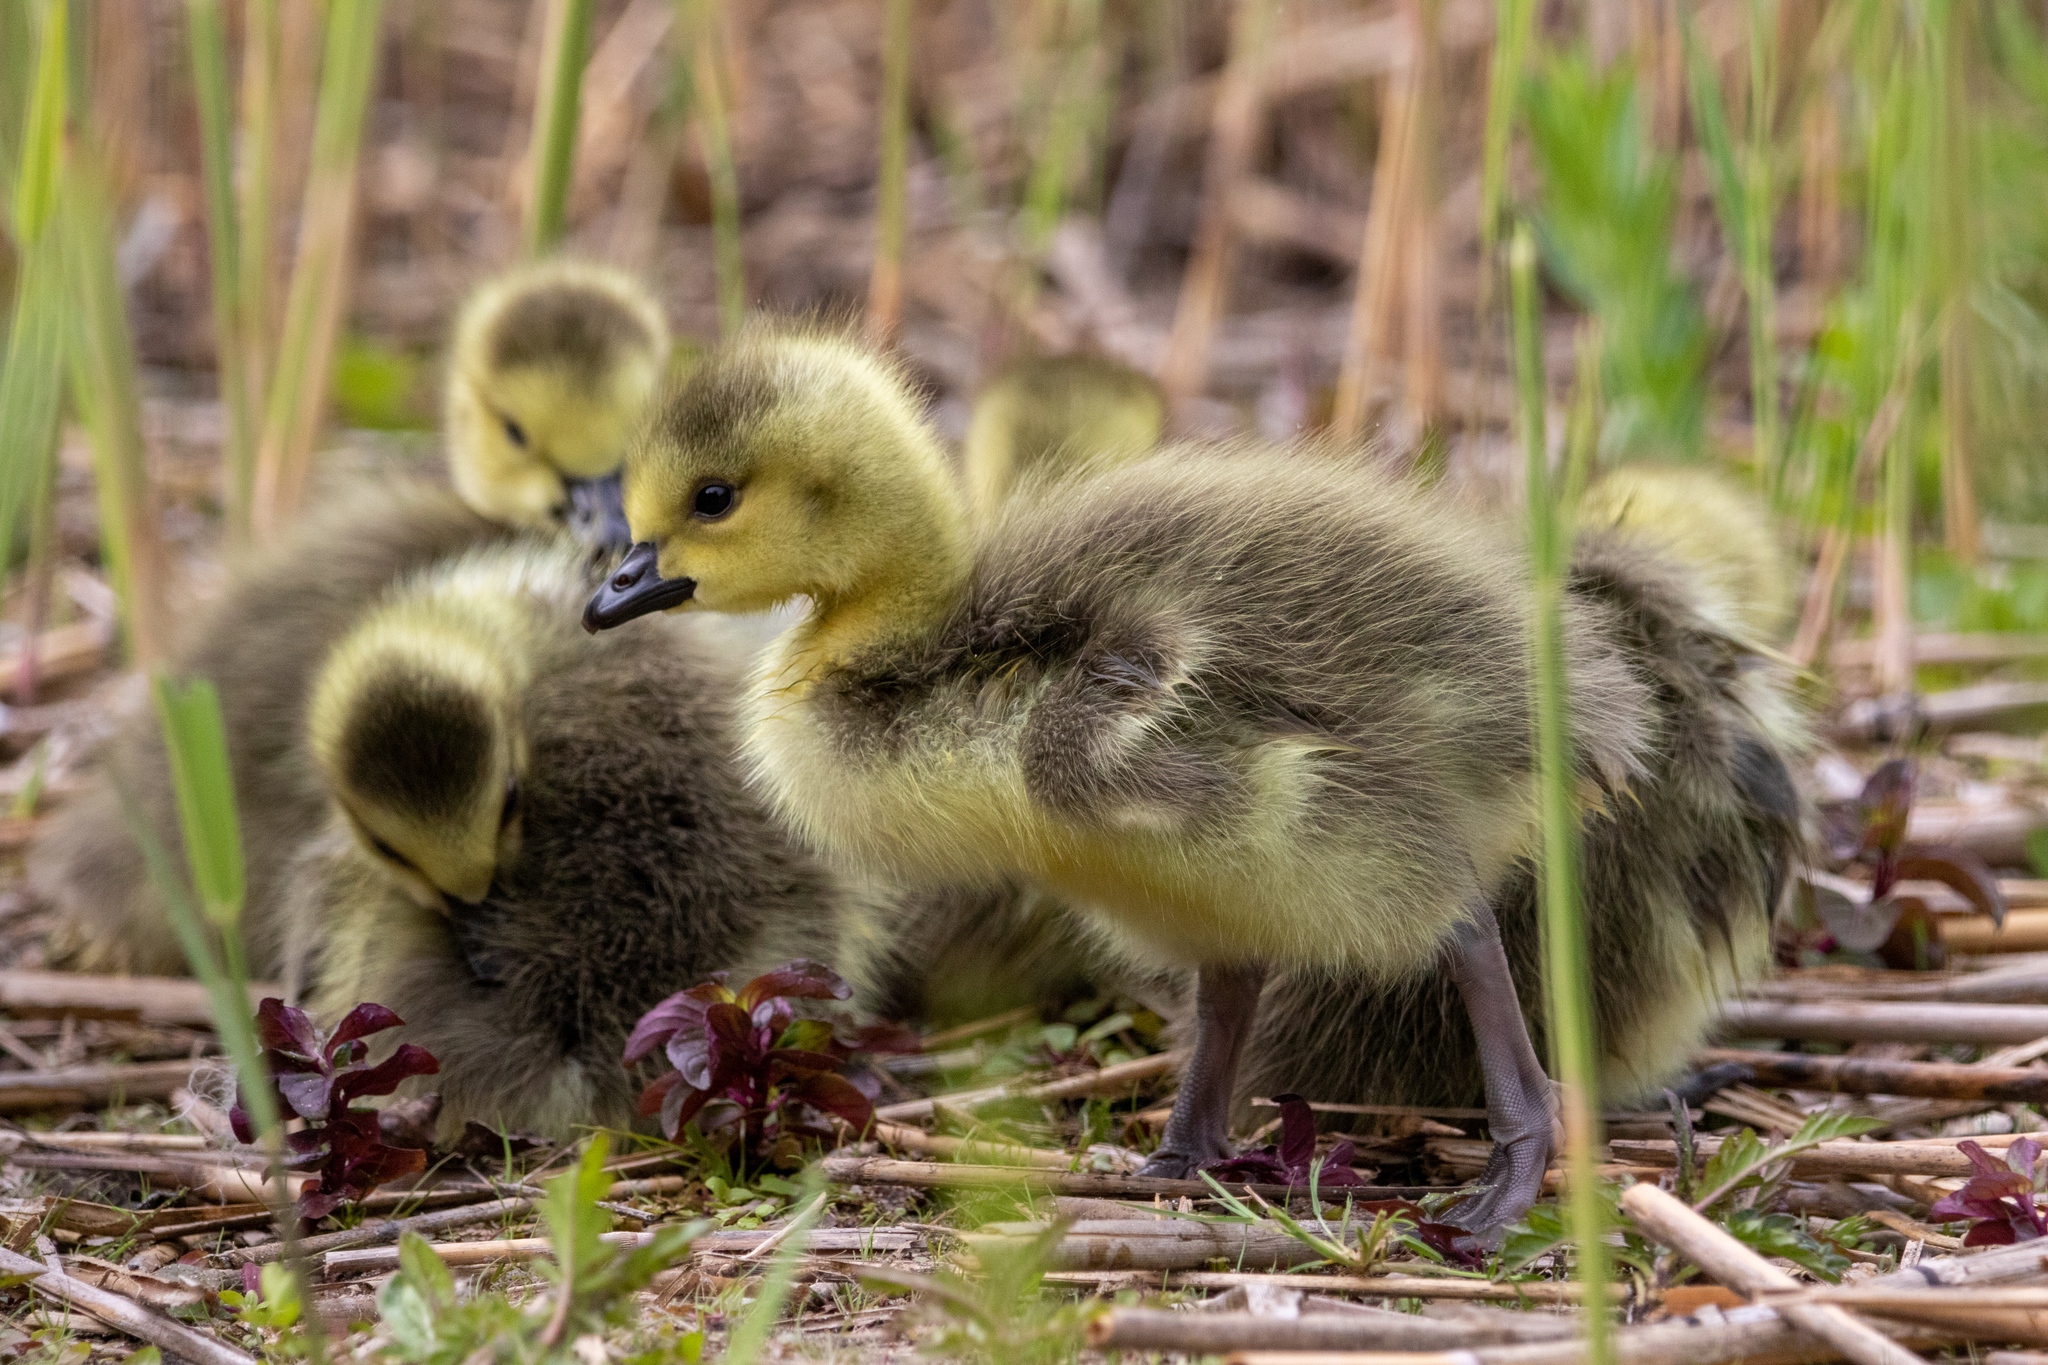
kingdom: Animalia
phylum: Chordata
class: Aves
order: Anseriformes
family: Anatidae
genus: Branta
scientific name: Branta canadensis
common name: Canada goose
